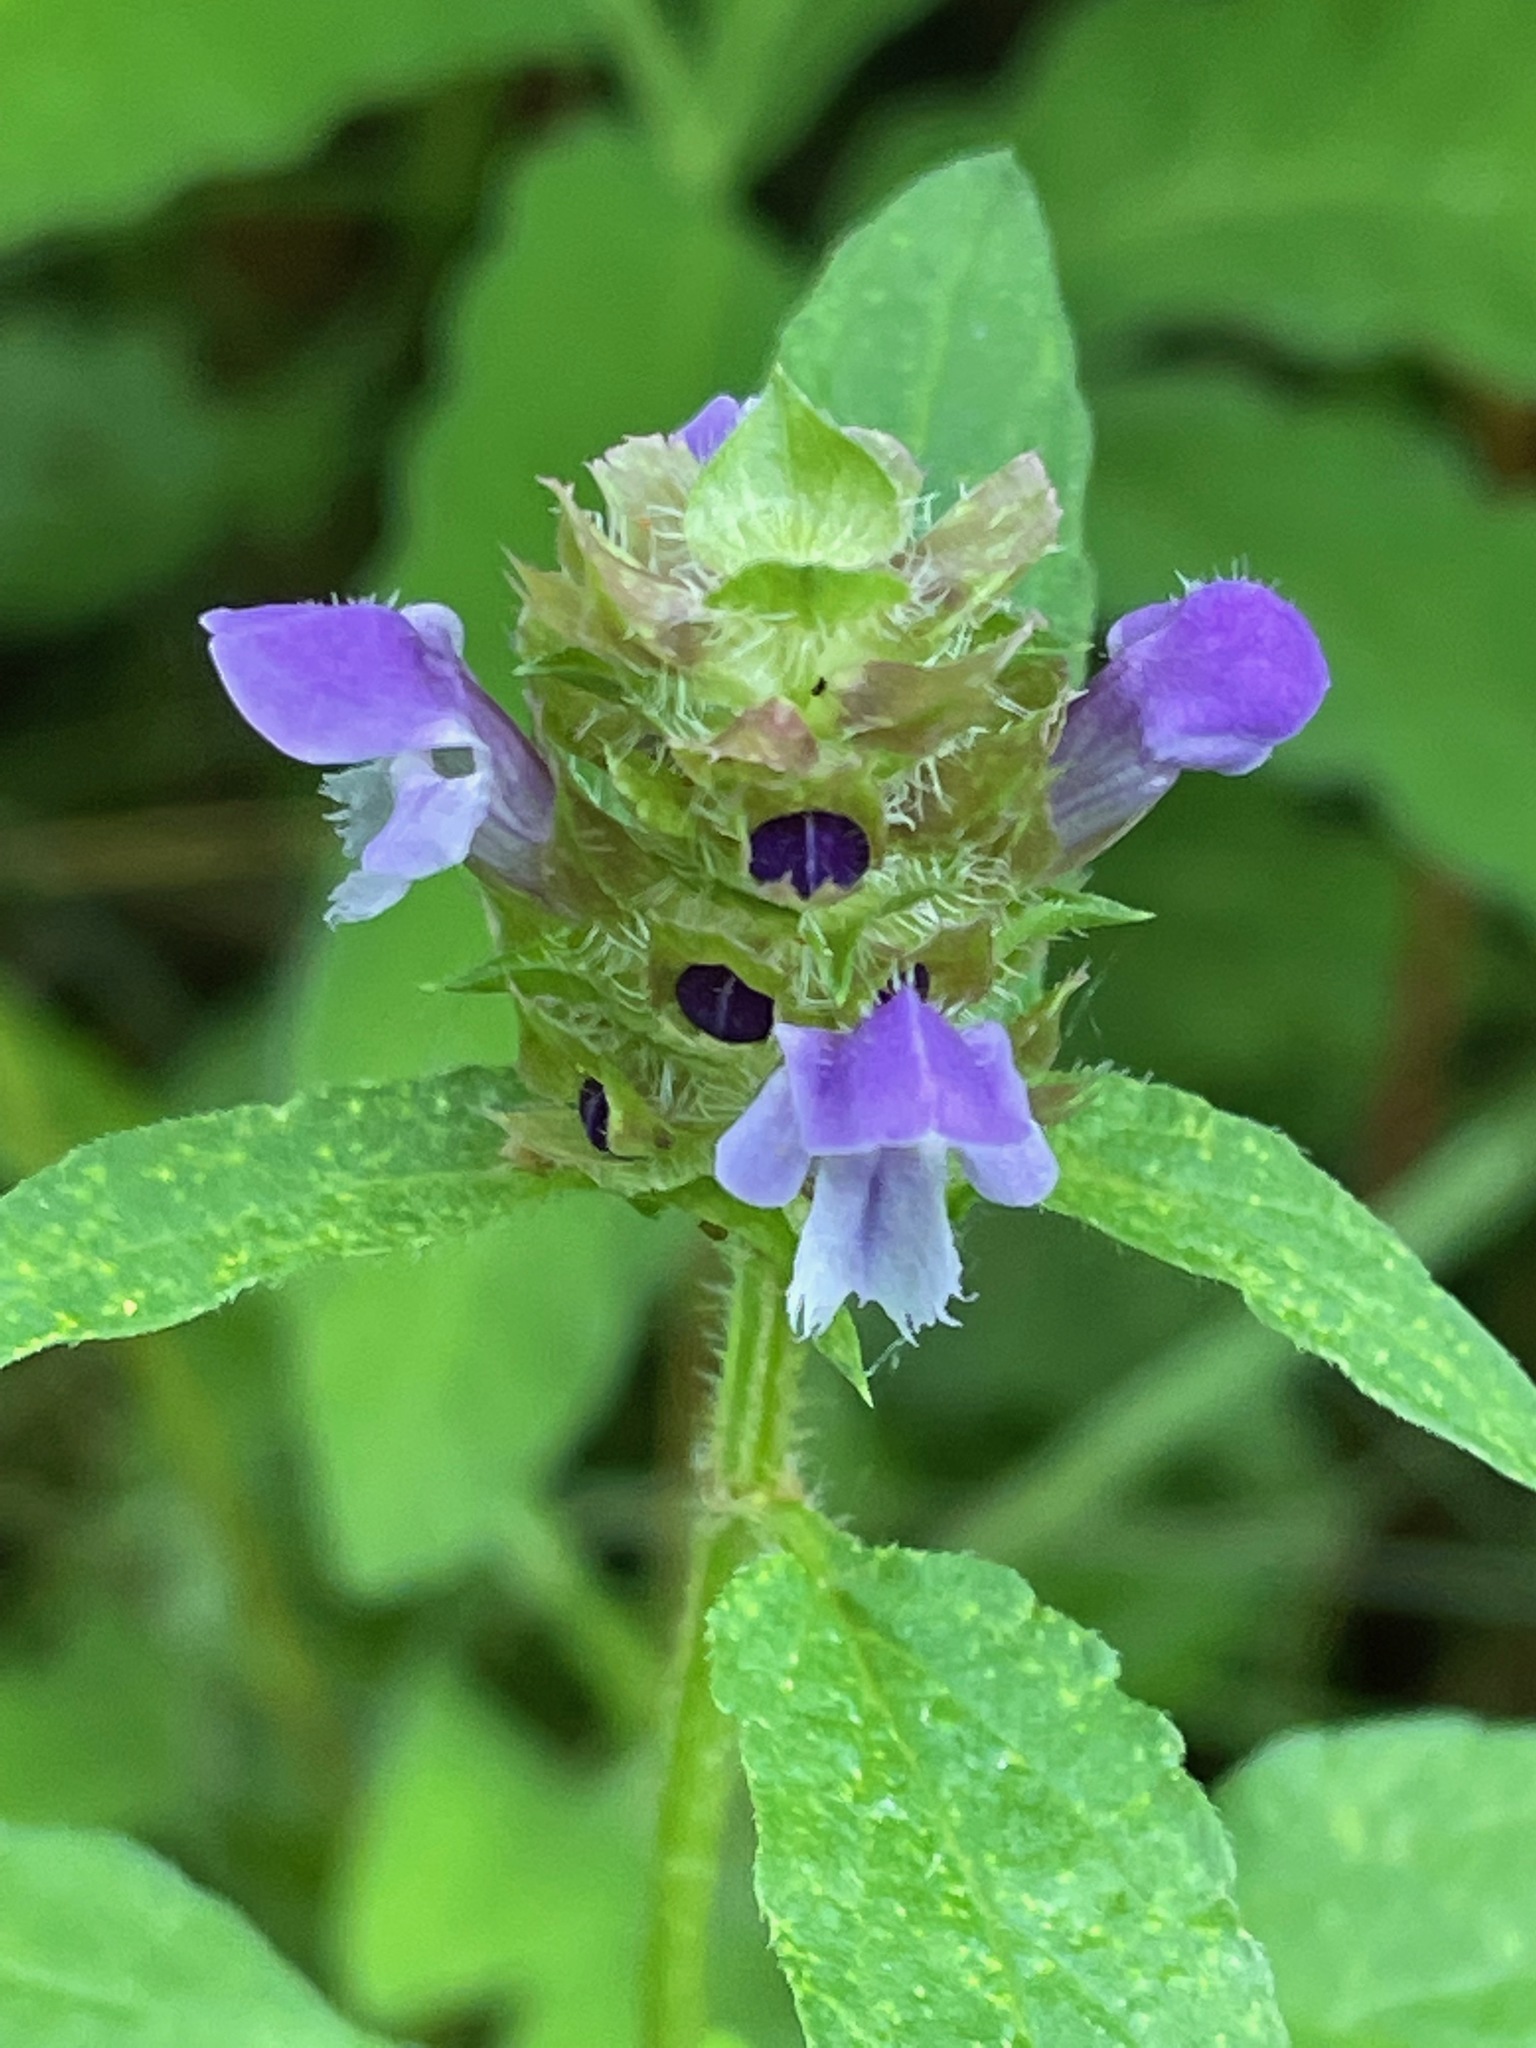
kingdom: Plantae
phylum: Tracheophyta
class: Magnoliopsida
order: Lamiales
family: Lamiaceae
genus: Prunella
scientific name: Prunella vulgaris
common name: Heal-all
